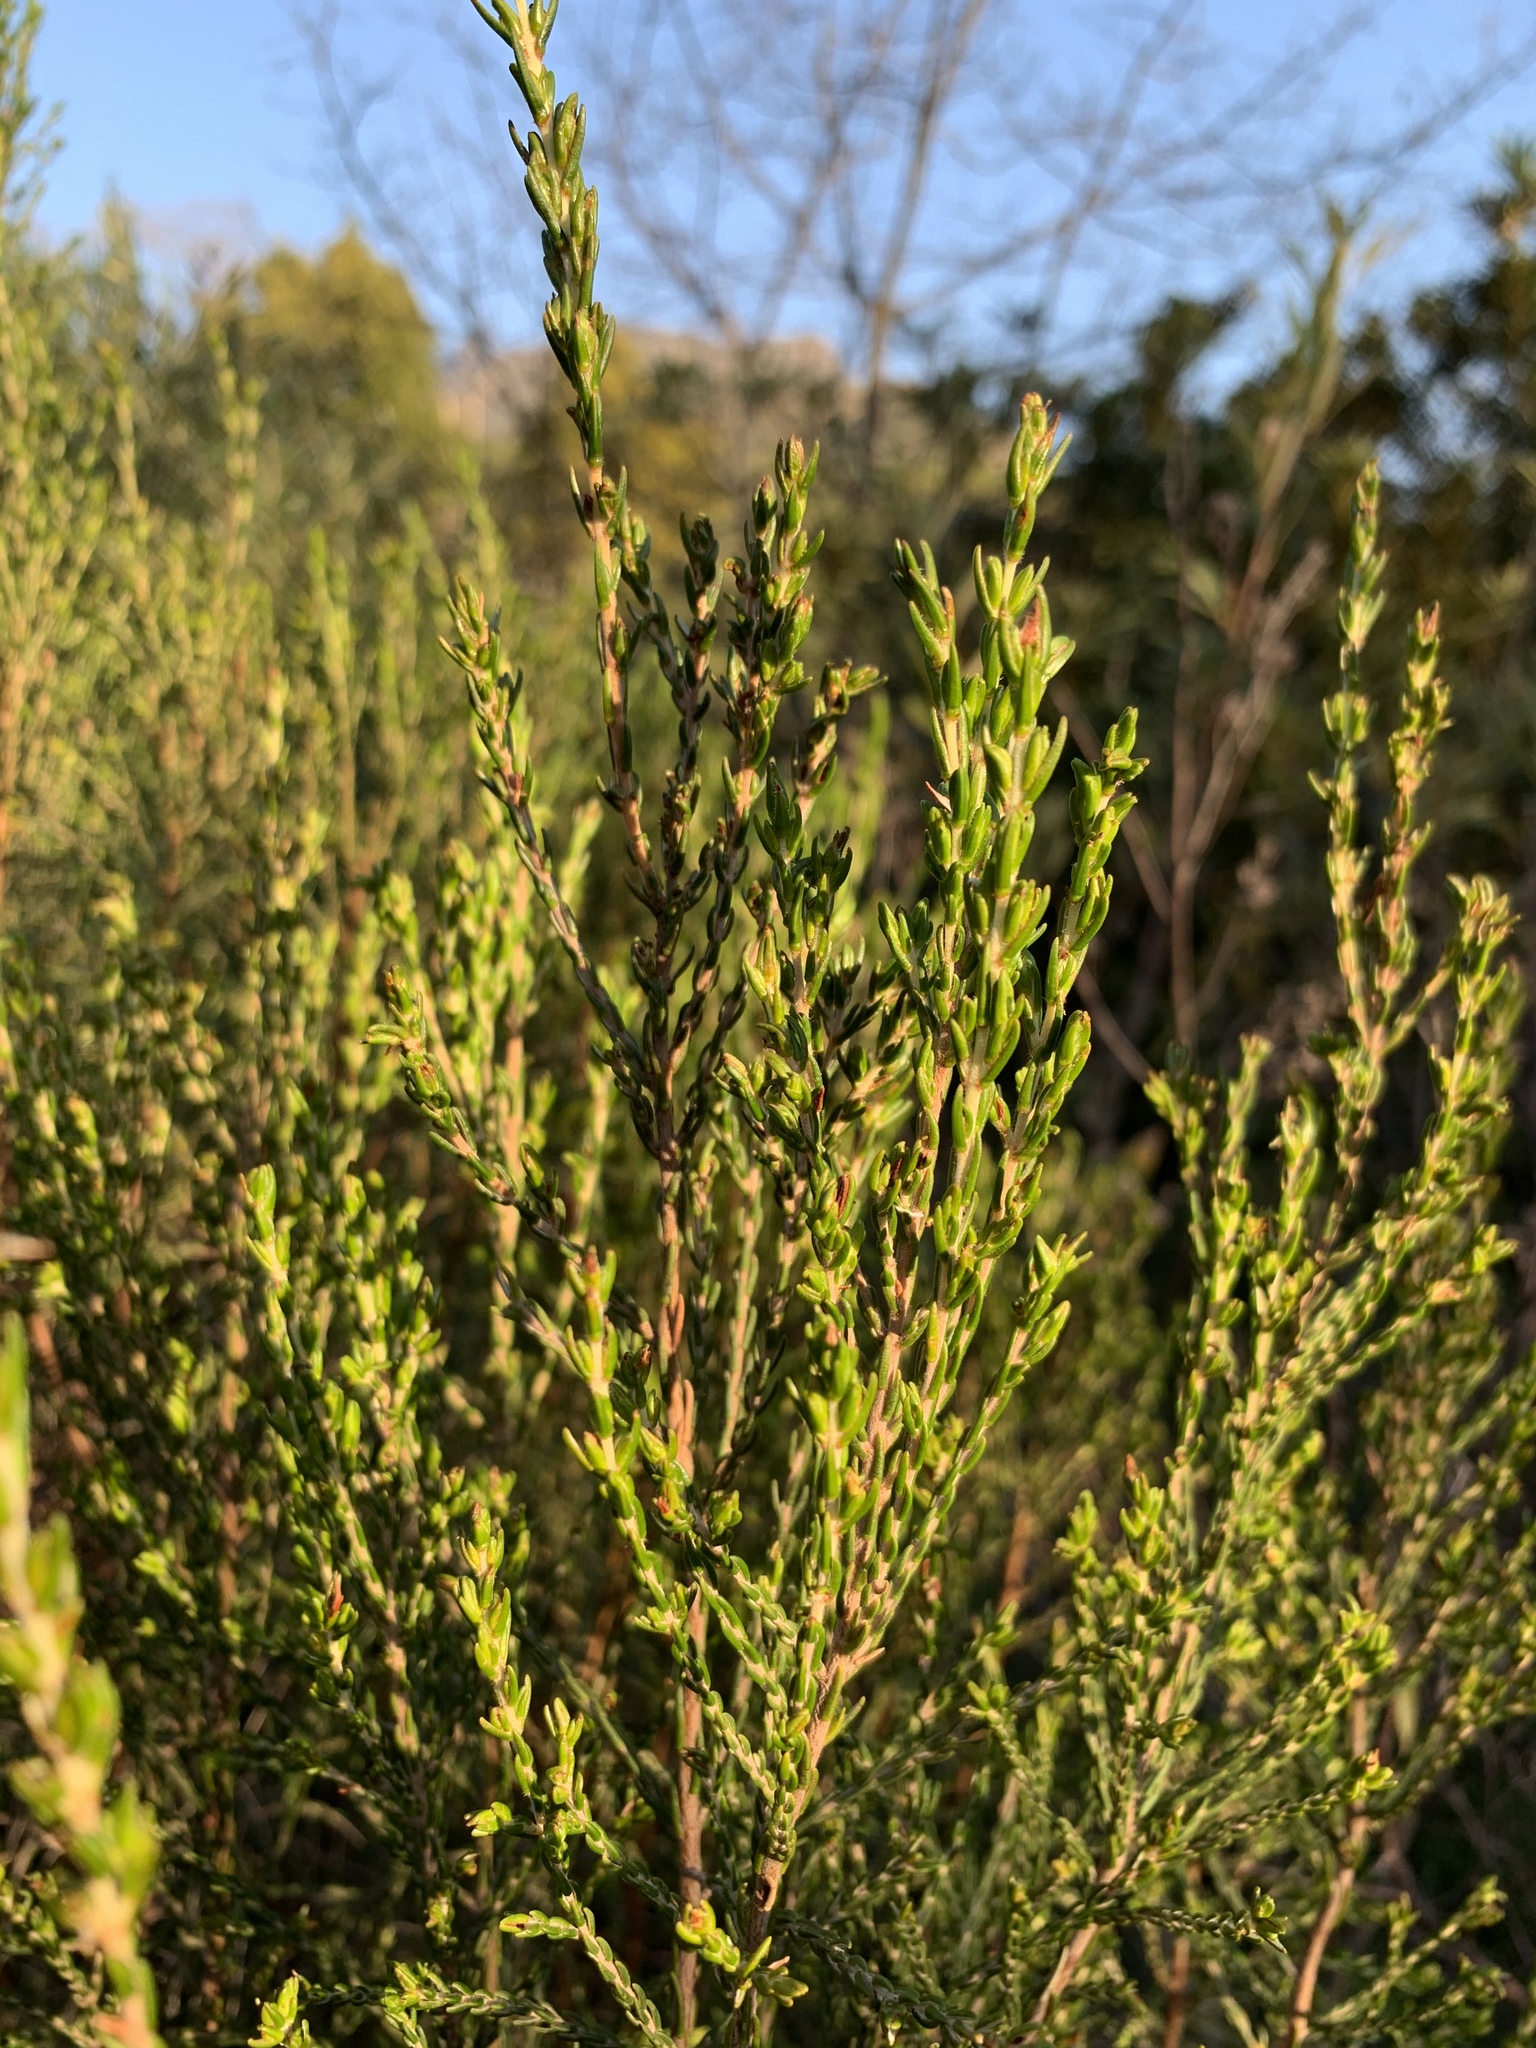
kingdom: Plantae
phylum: Tracheophyta
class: Magnoliopsida
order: Malvales
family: Thymelaeaceae
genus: Passerina
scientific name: Passerina corymbosa
